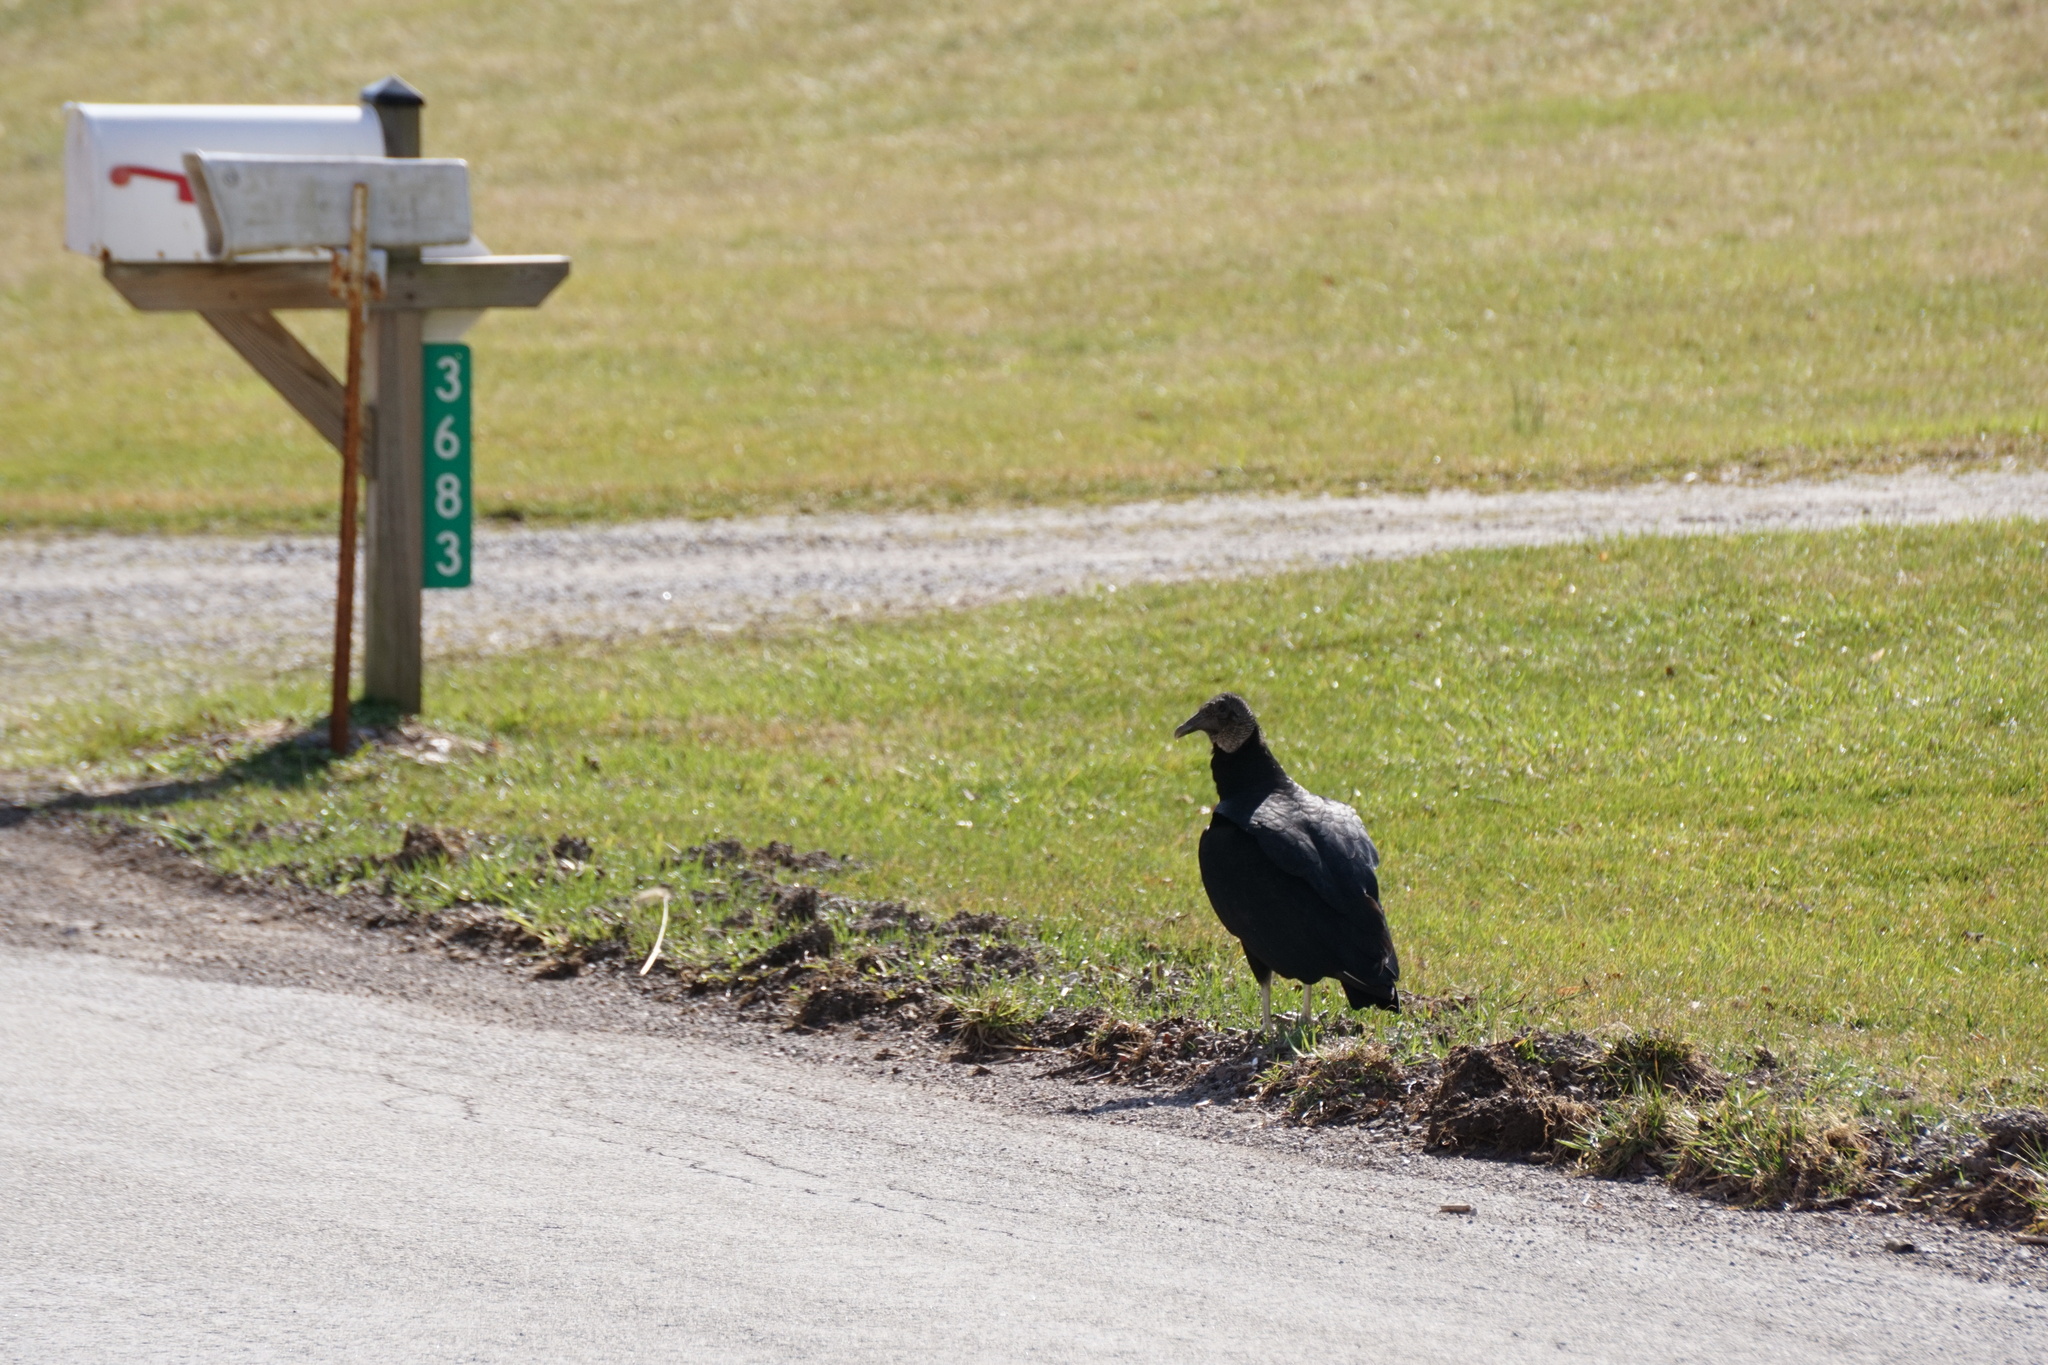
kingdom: Animalia
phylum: Chordata
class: Aves
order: Accipitriformes
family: Cathartidae
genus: Coragyps
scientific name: Coragyps atratus
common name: Black vulture
